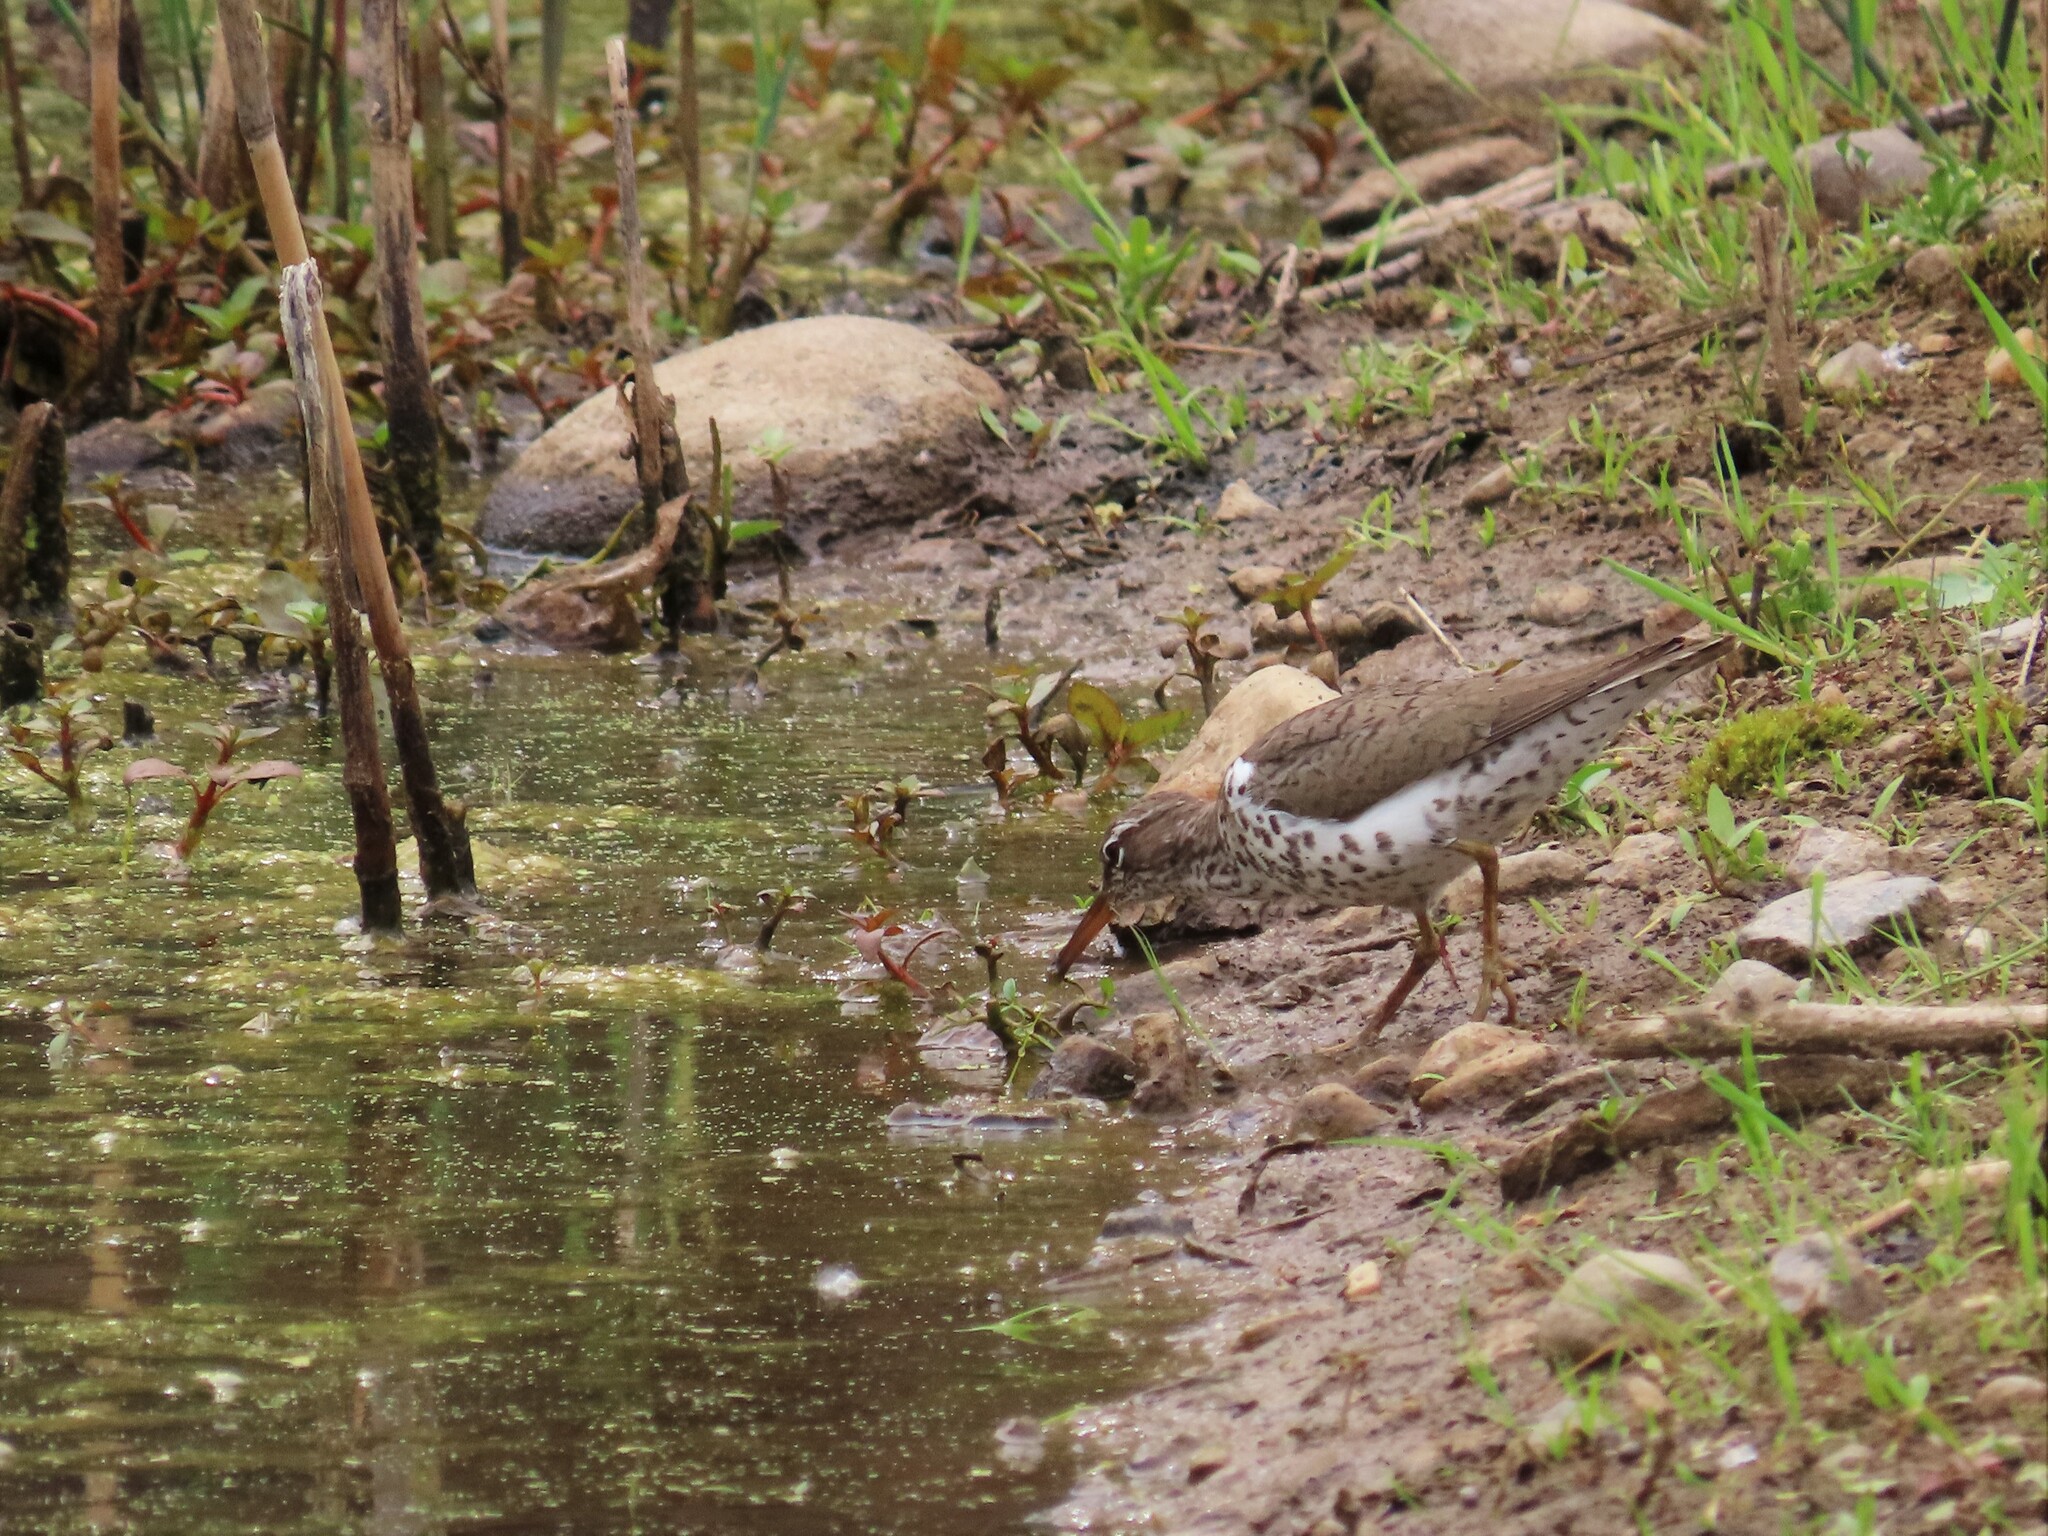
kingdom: Animalia
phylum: Chordata
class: Aves
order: Charadriiformes
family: Scolopacidae
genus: Actitis
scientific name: Actitis macularius
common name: Spotted sandpiper
